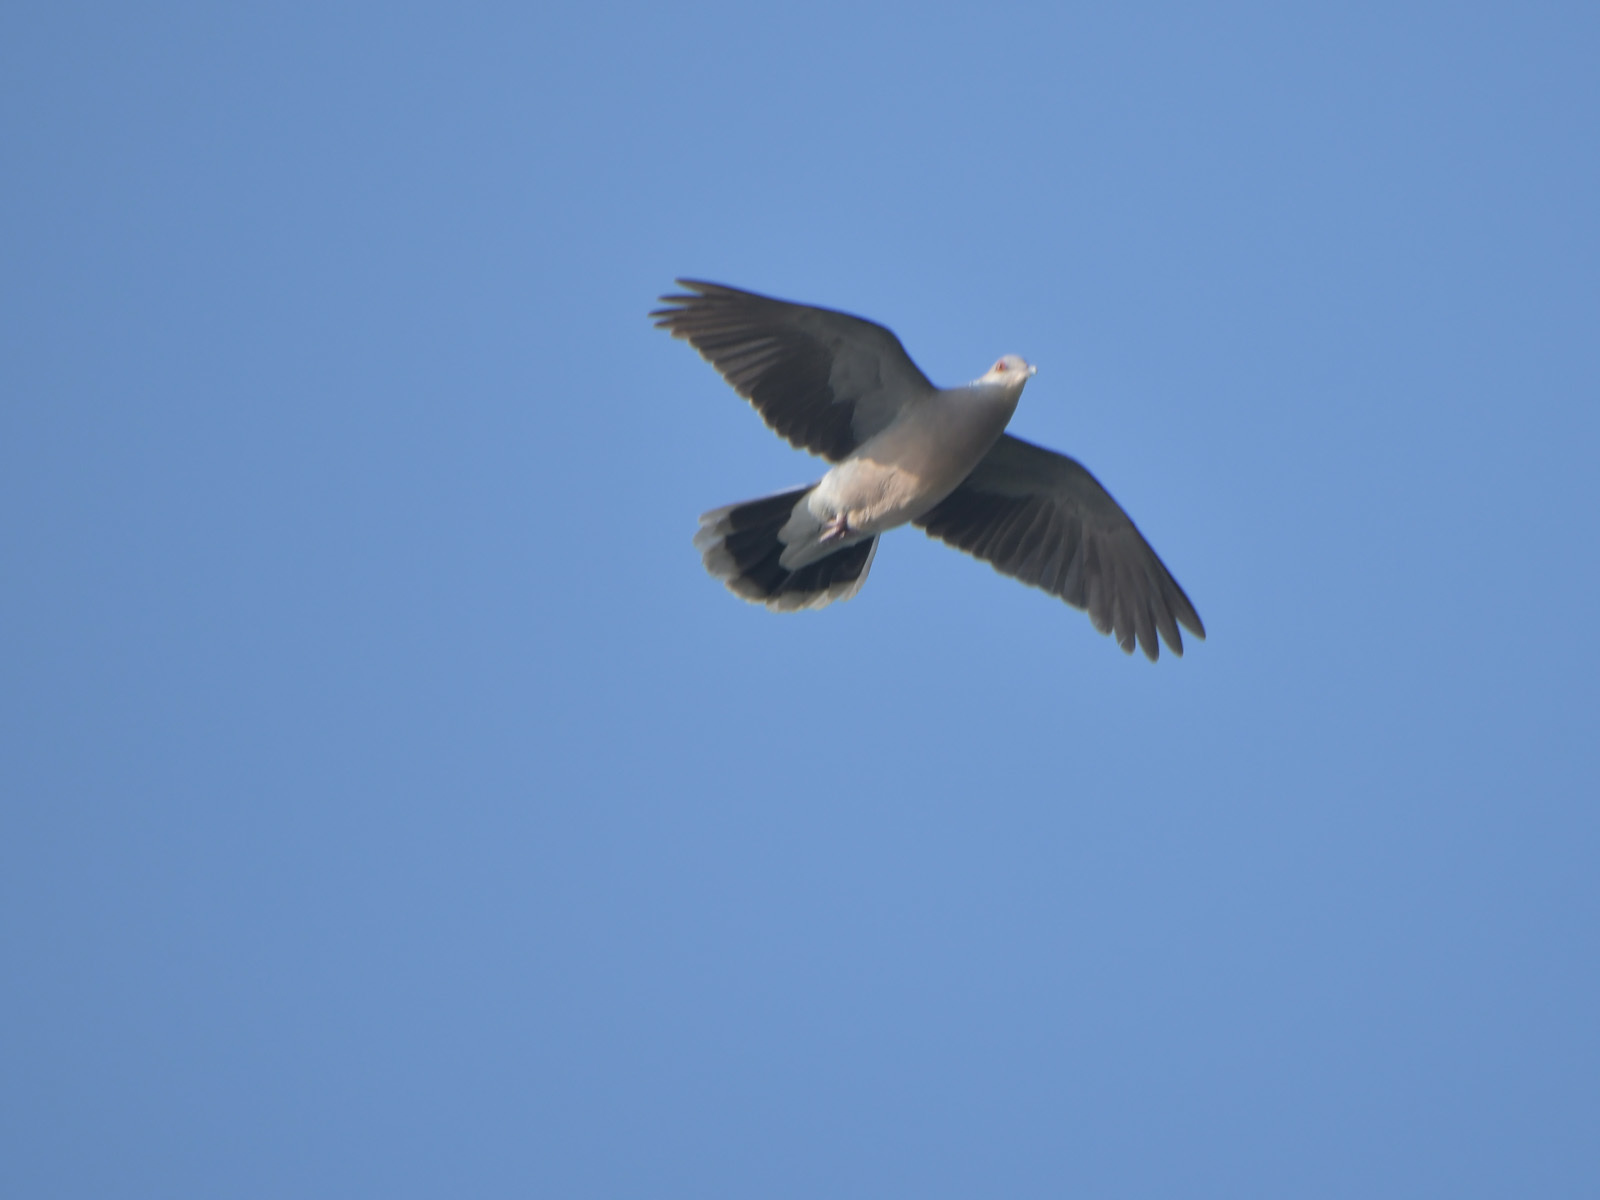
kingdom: Animalia
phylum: Chordata
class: Aves
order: Columbiformes
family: Columbidae
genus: Streptopelia
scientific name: Streptopelia orientalis
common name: Oriental turtle dove
